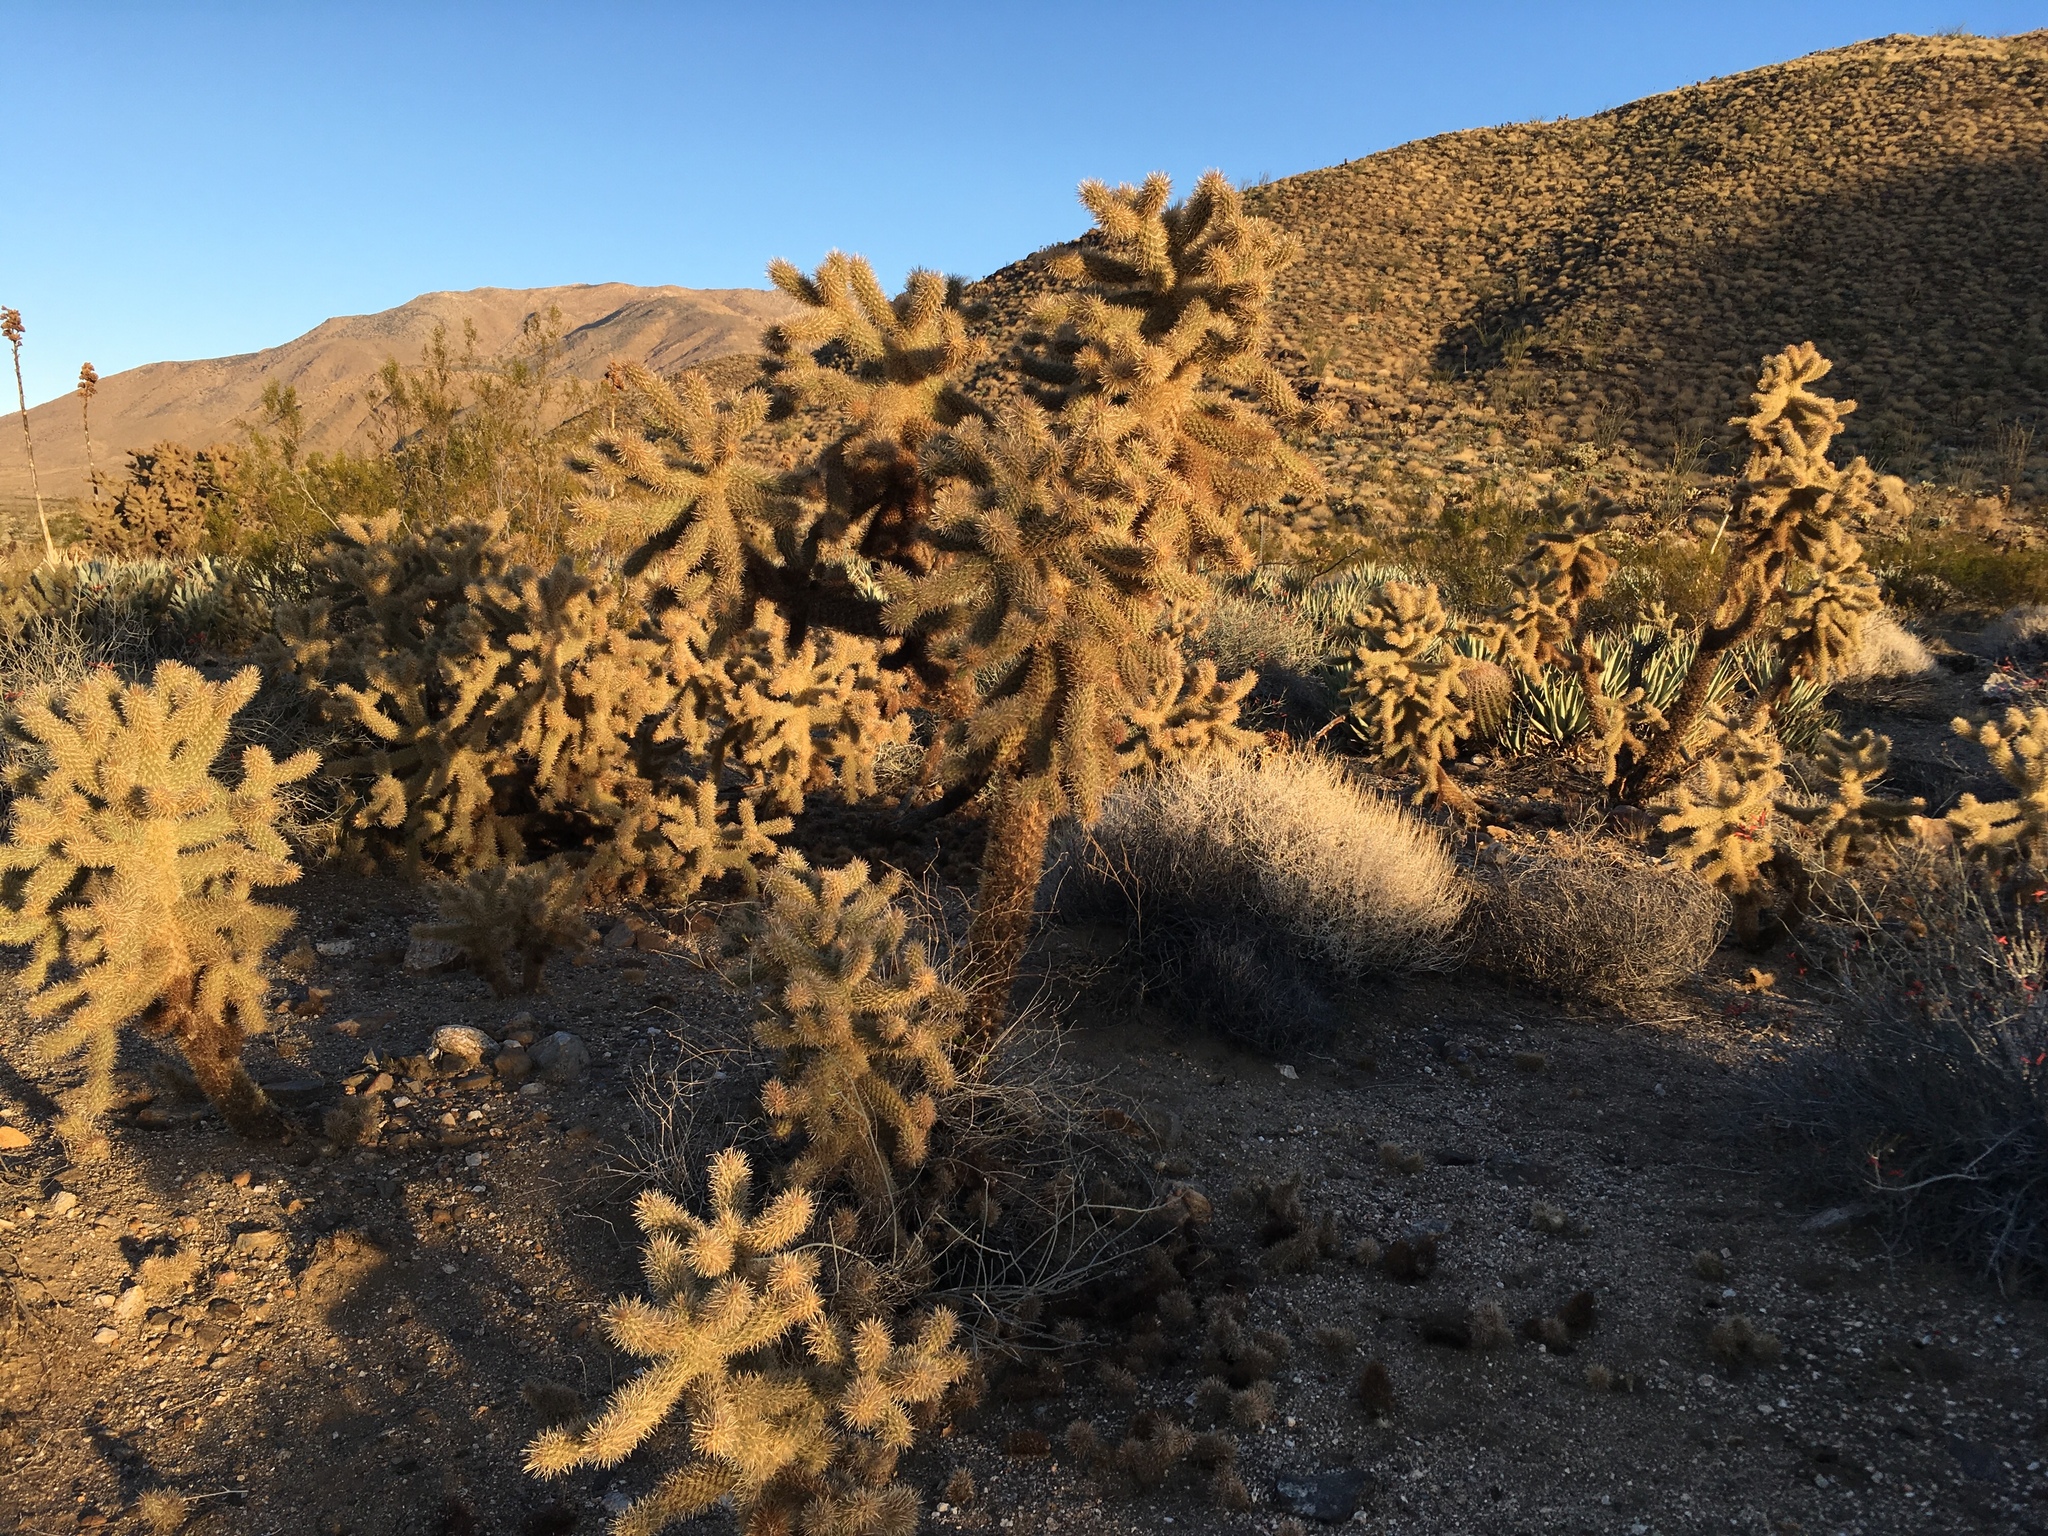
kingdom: Plantae
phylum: Tracheophyta
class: Magnoliopsida
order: Caryophyllales
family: Cactaceae
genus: Cylindropuntia
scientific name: Cylindropuntia fosbergii
